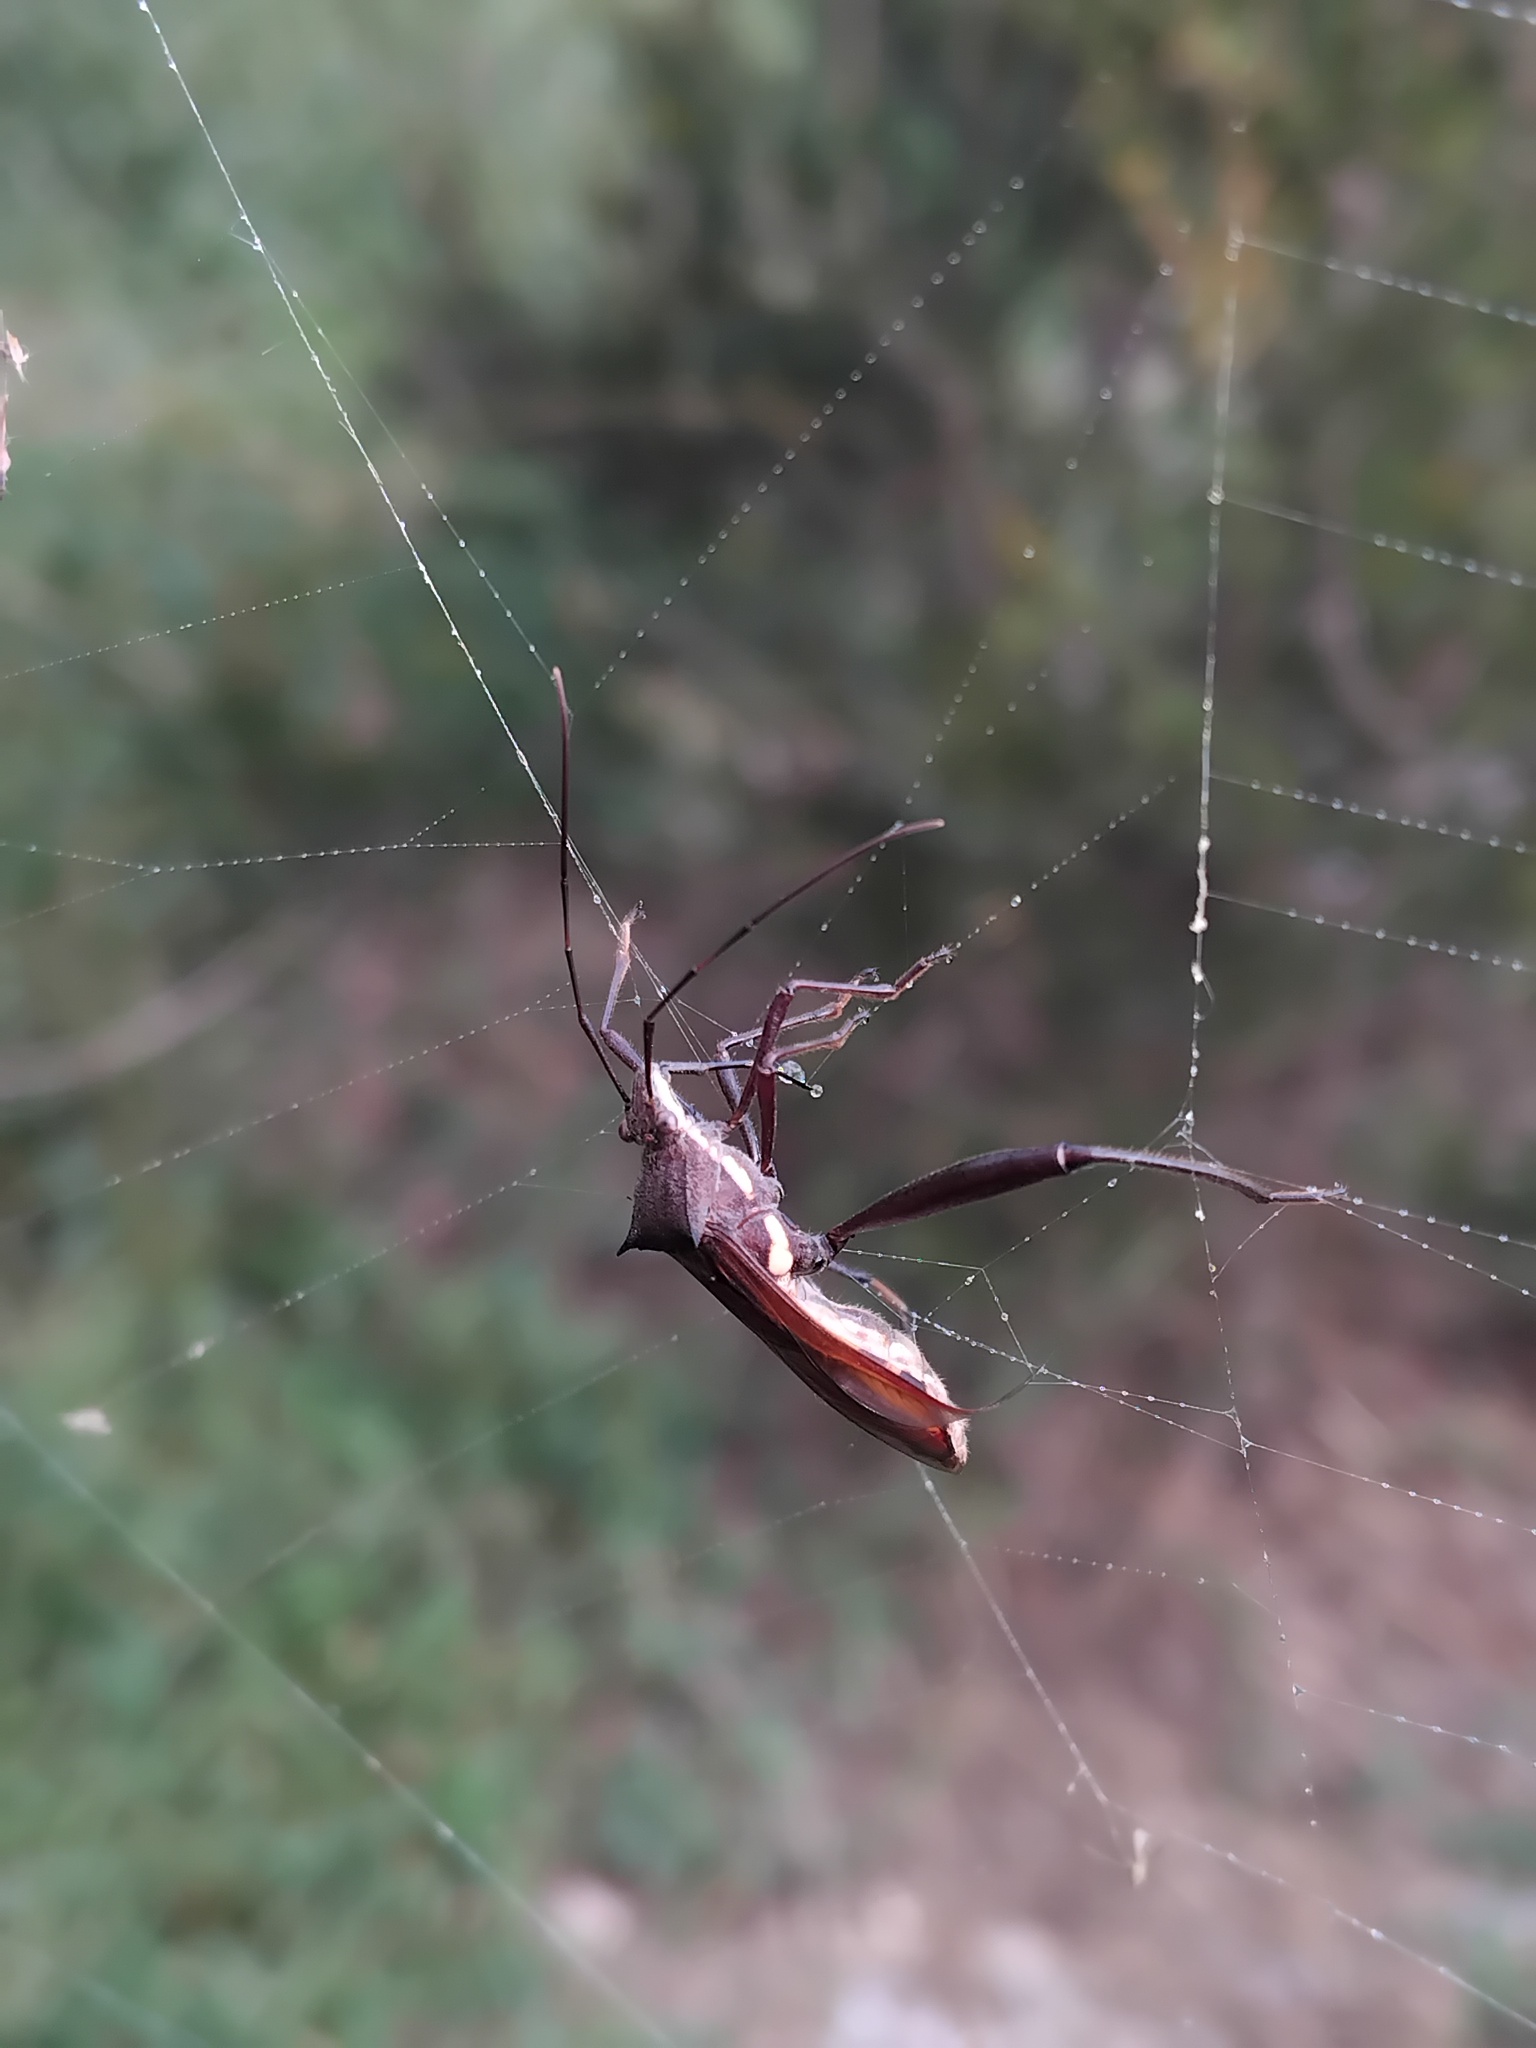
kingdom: Animalia
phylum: Arthropoda
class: Insecta
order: Hemiptera
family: Alydidae
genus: Riptortus
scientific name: Riptortus serripes
